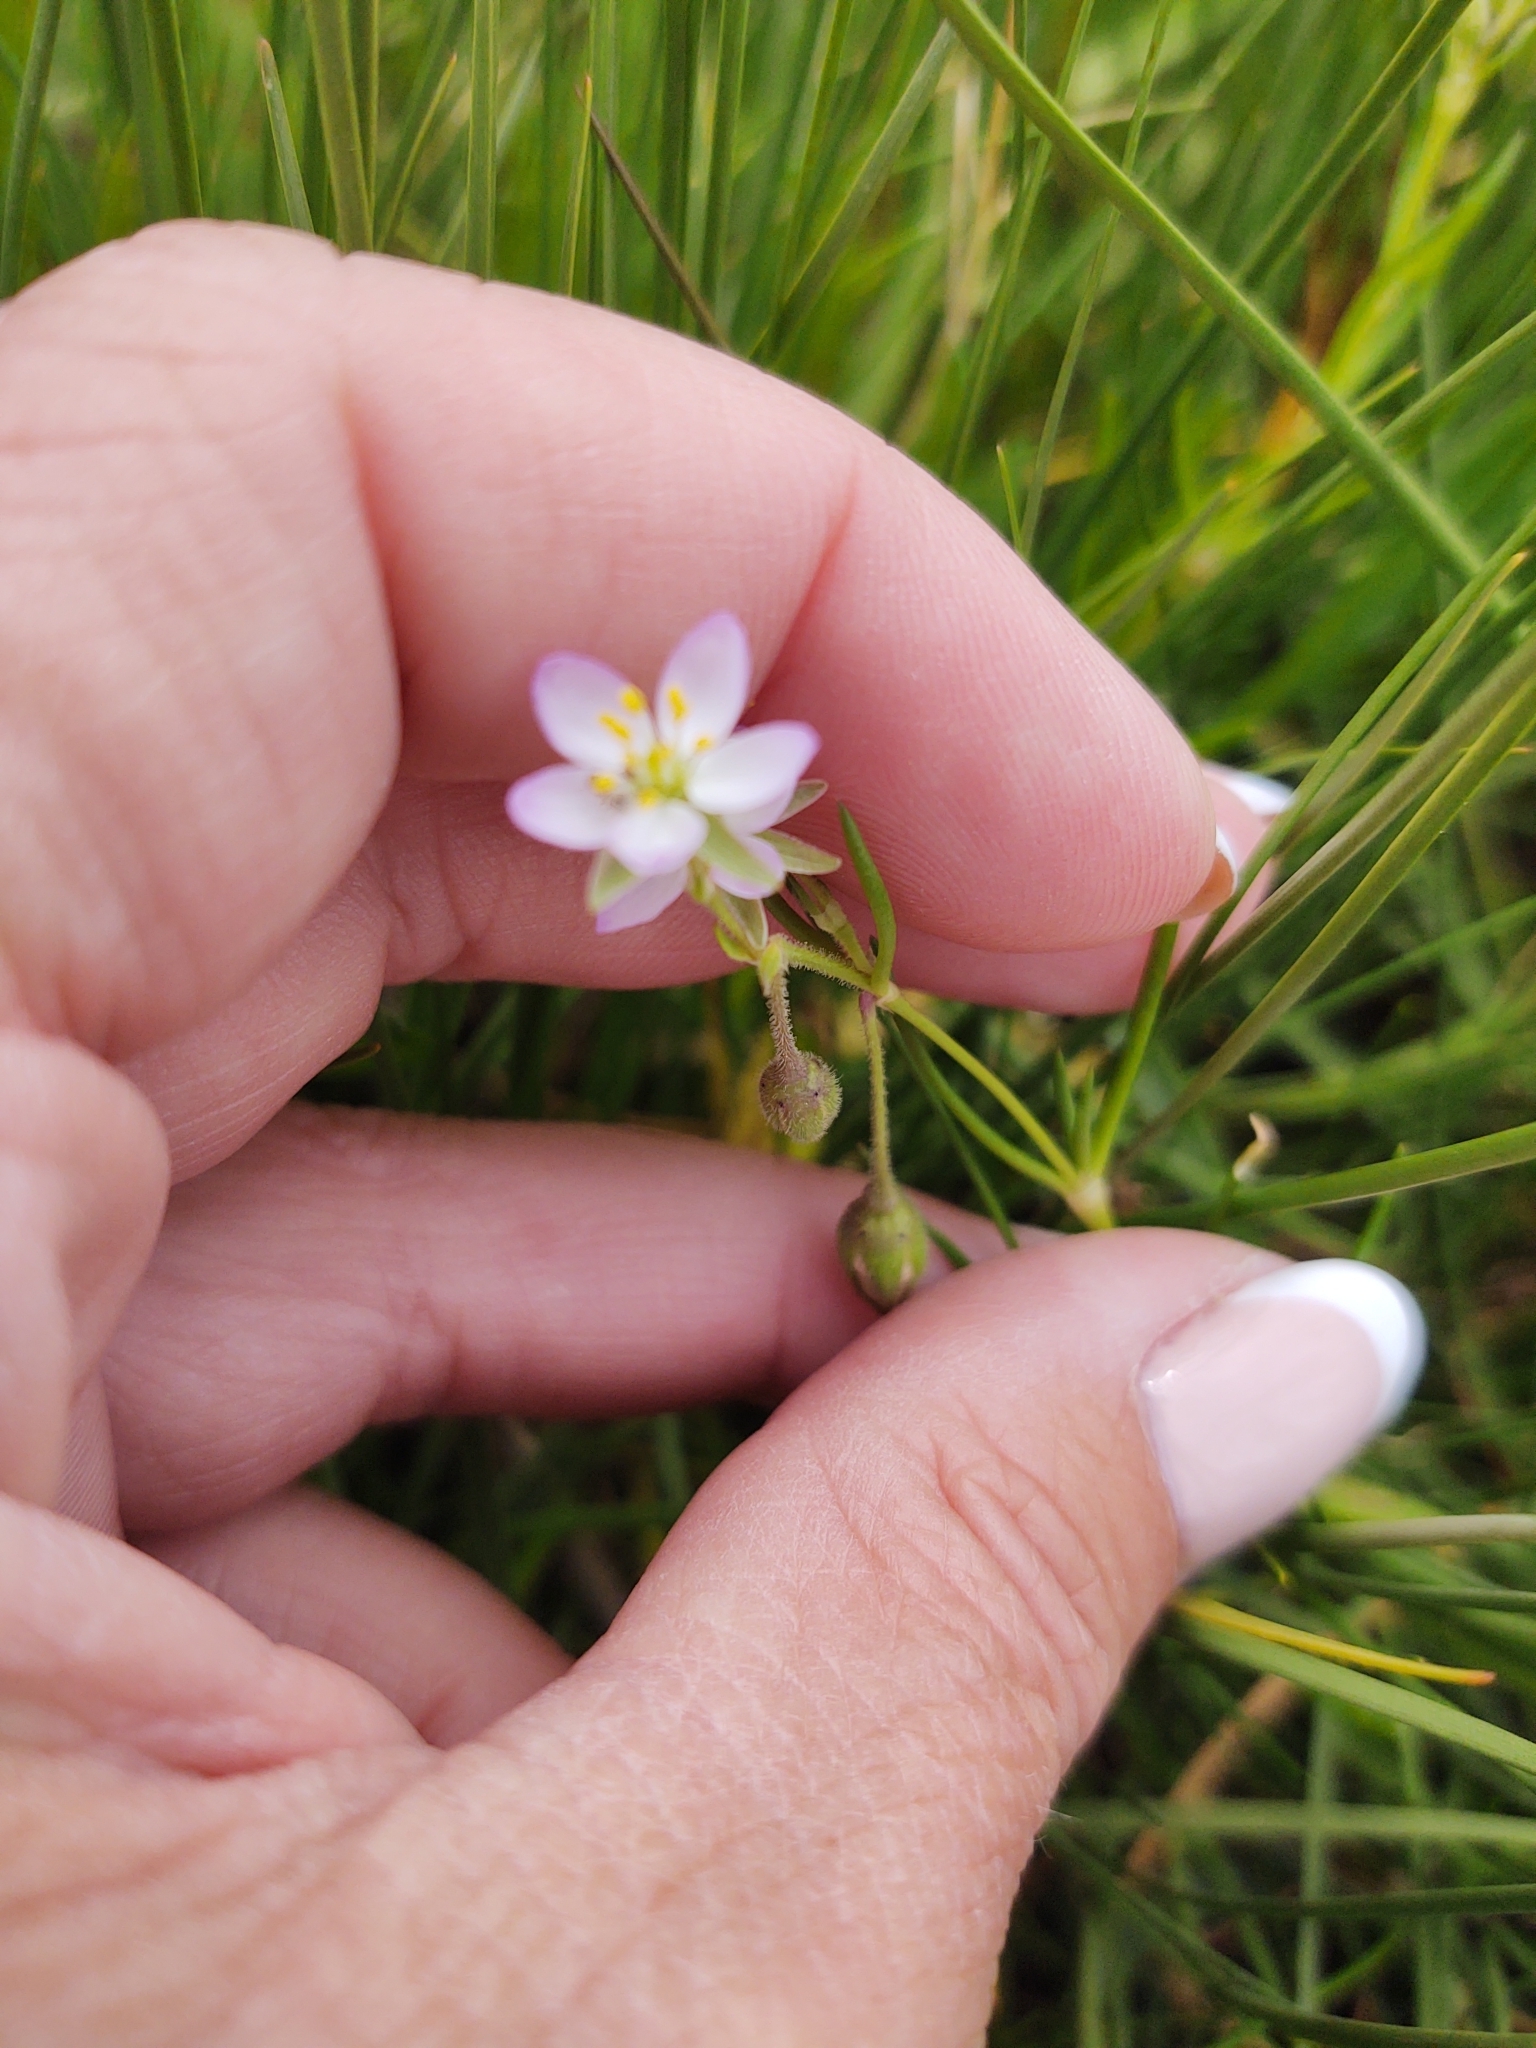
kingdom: Plantae
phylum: Tracheophyta
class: Magnoliopsida
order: Caryophyllales
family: Caryophyllaceae
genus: Spergularia
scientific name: Spergularia media
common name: Greater sea-spurrey
